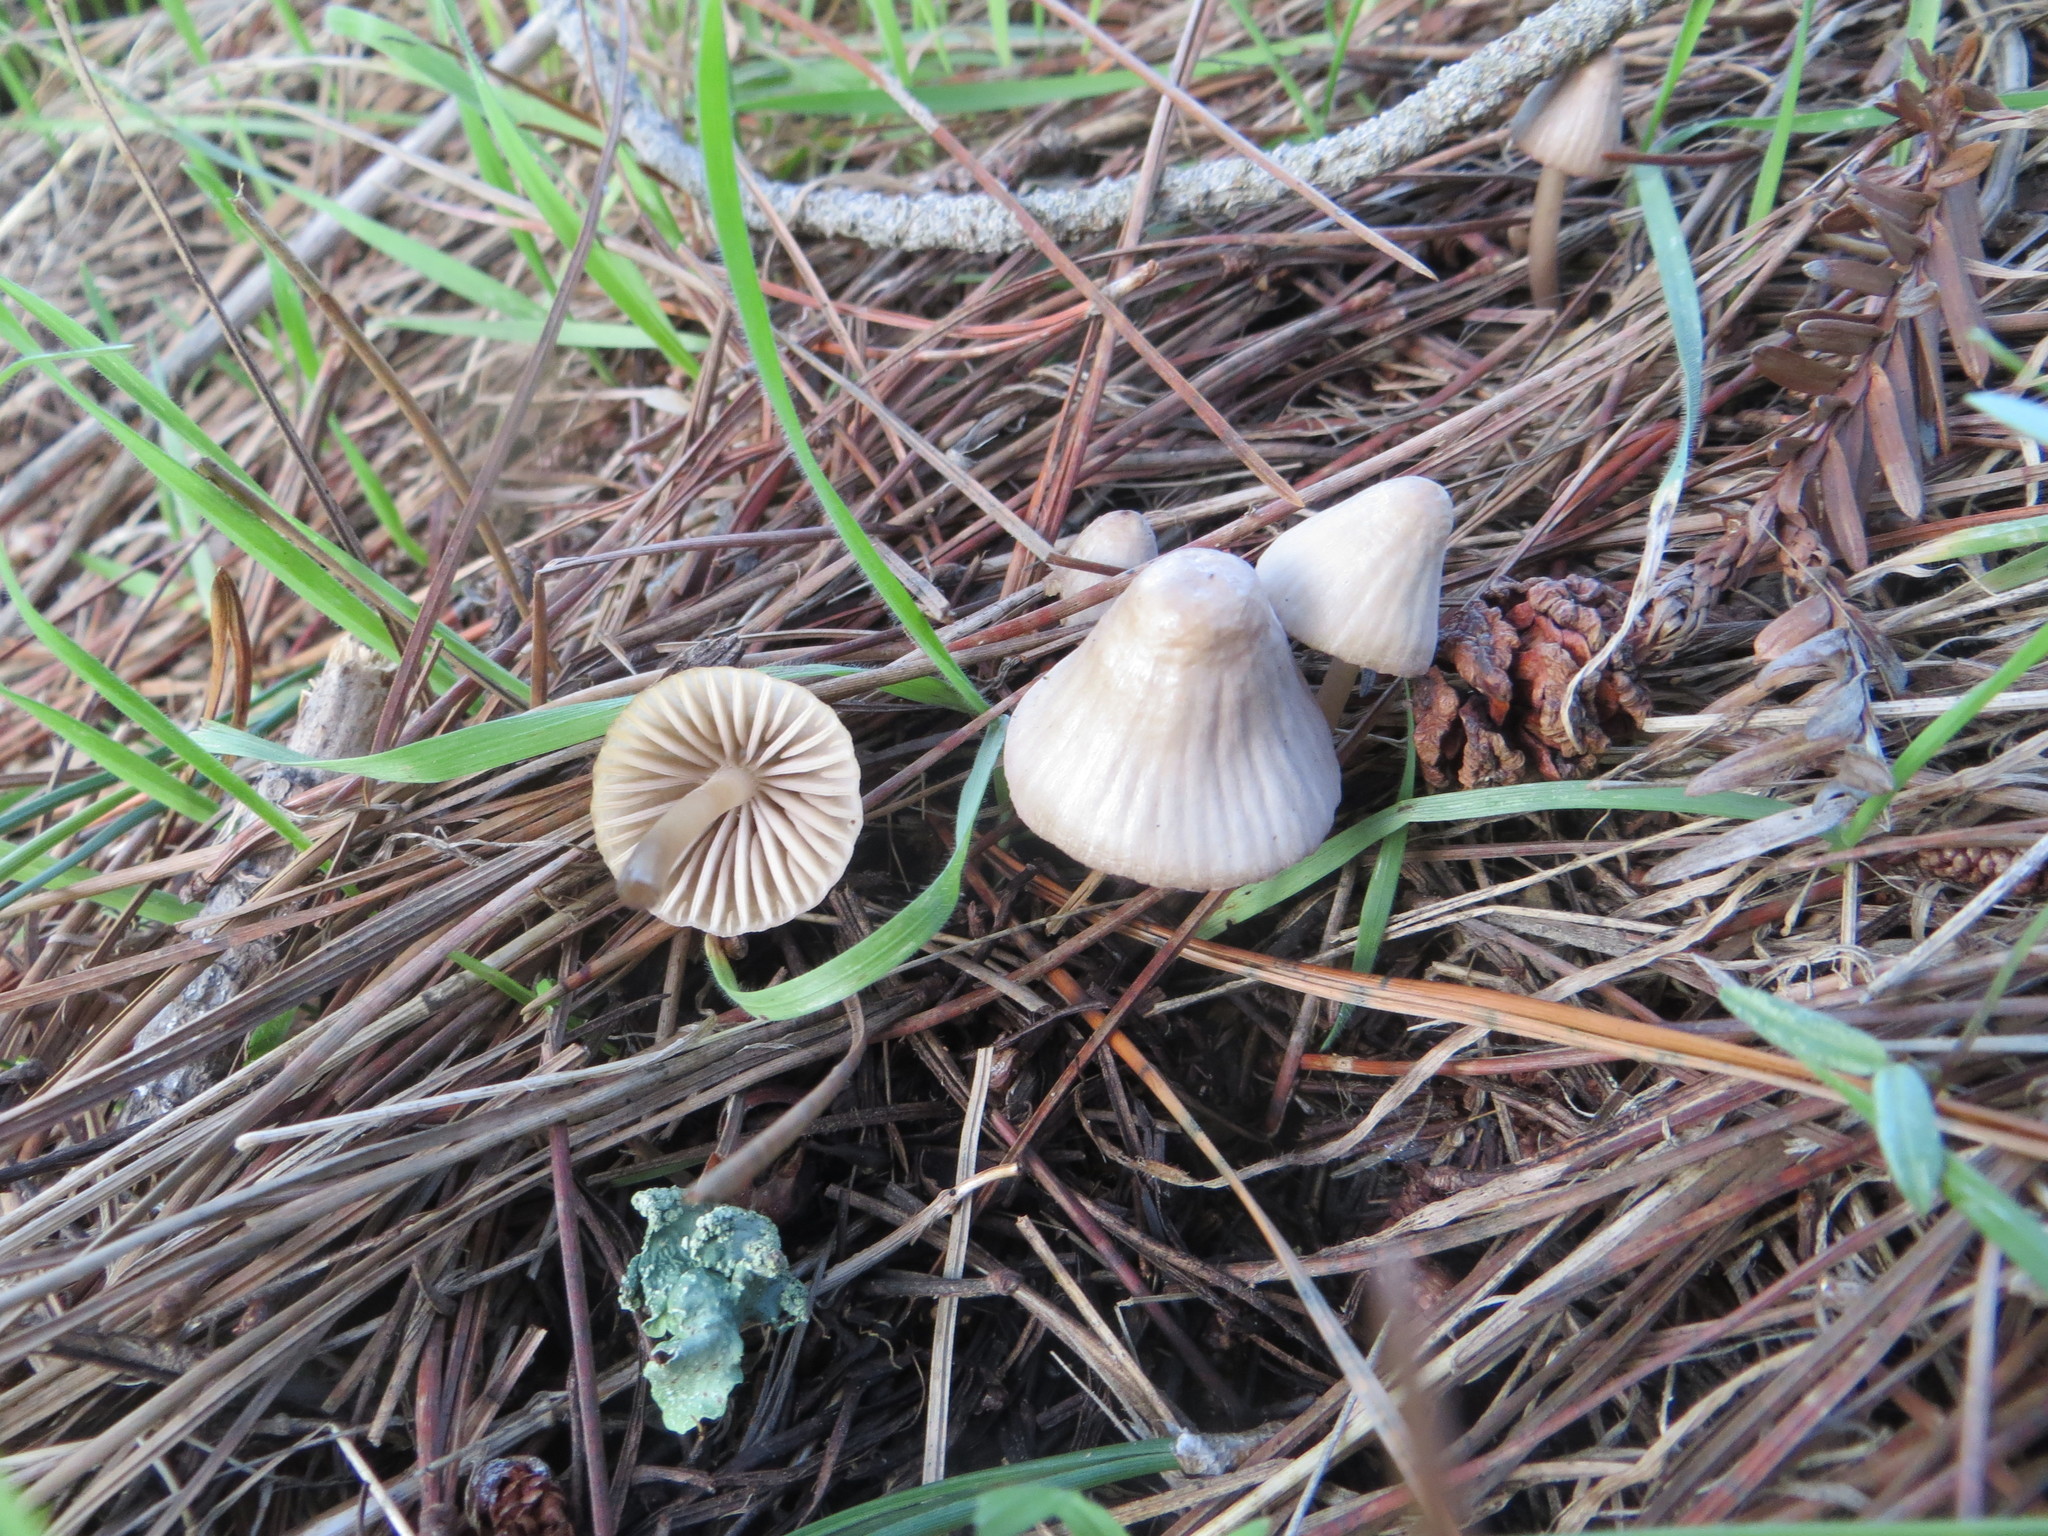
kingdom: Fungi
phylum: Basidiomycota
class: Agaricomycetes
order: Agaricales
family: Mycenaceae
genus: Mycena
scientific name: Mycena capillaripes
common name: Pinkedge bonnet
